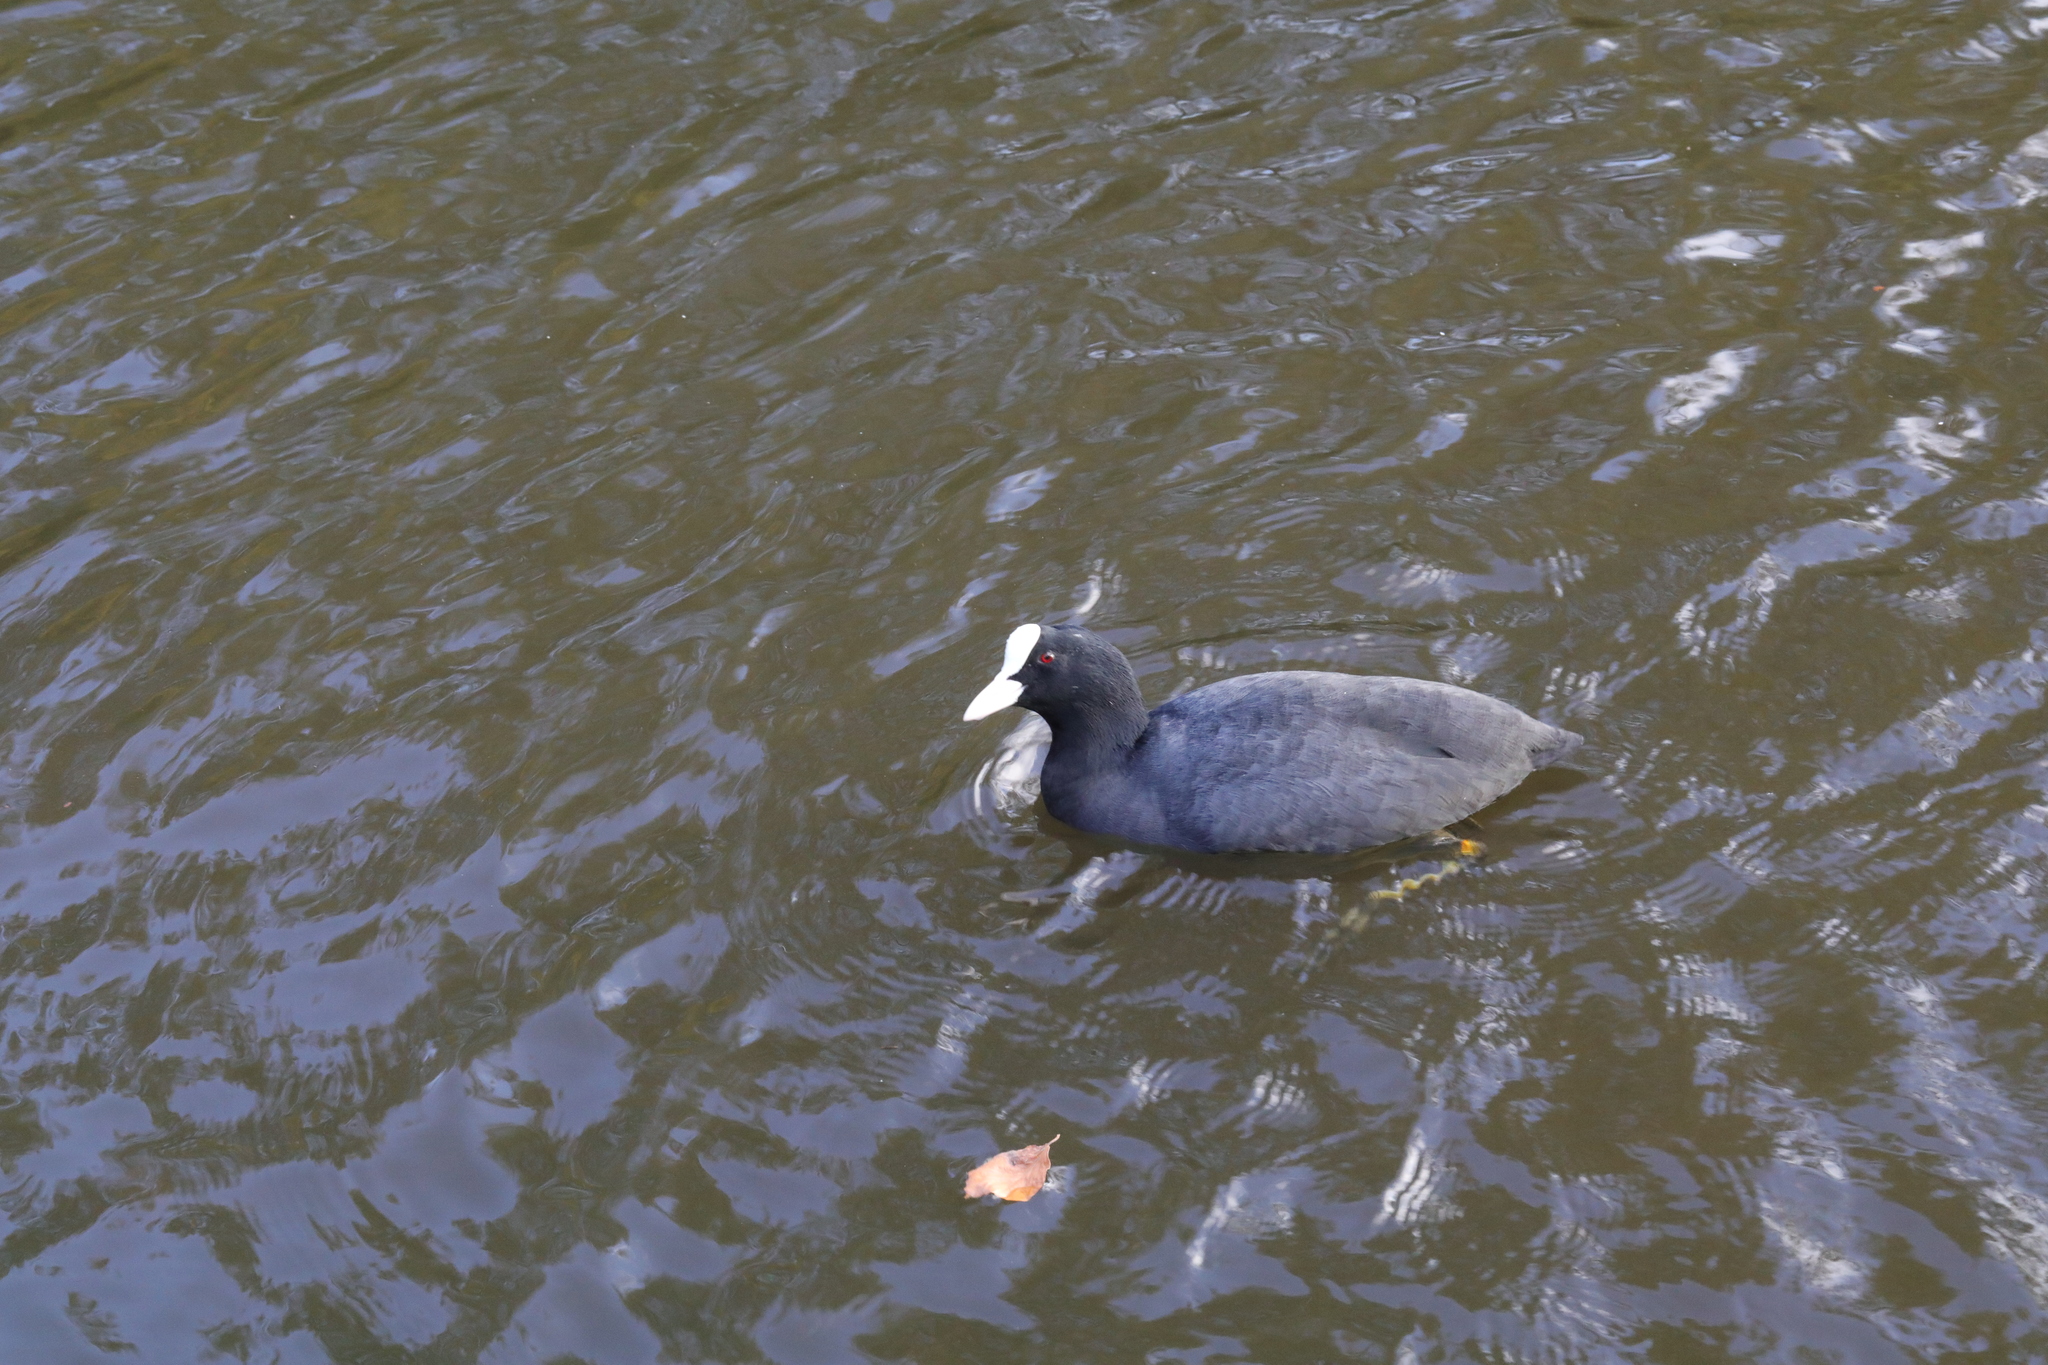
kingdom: Animalia
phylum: Chordata
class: Aves
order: Gruiformes
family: Rallidae
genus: Fulica
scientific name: Fulica atra
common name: Eurasian coot
